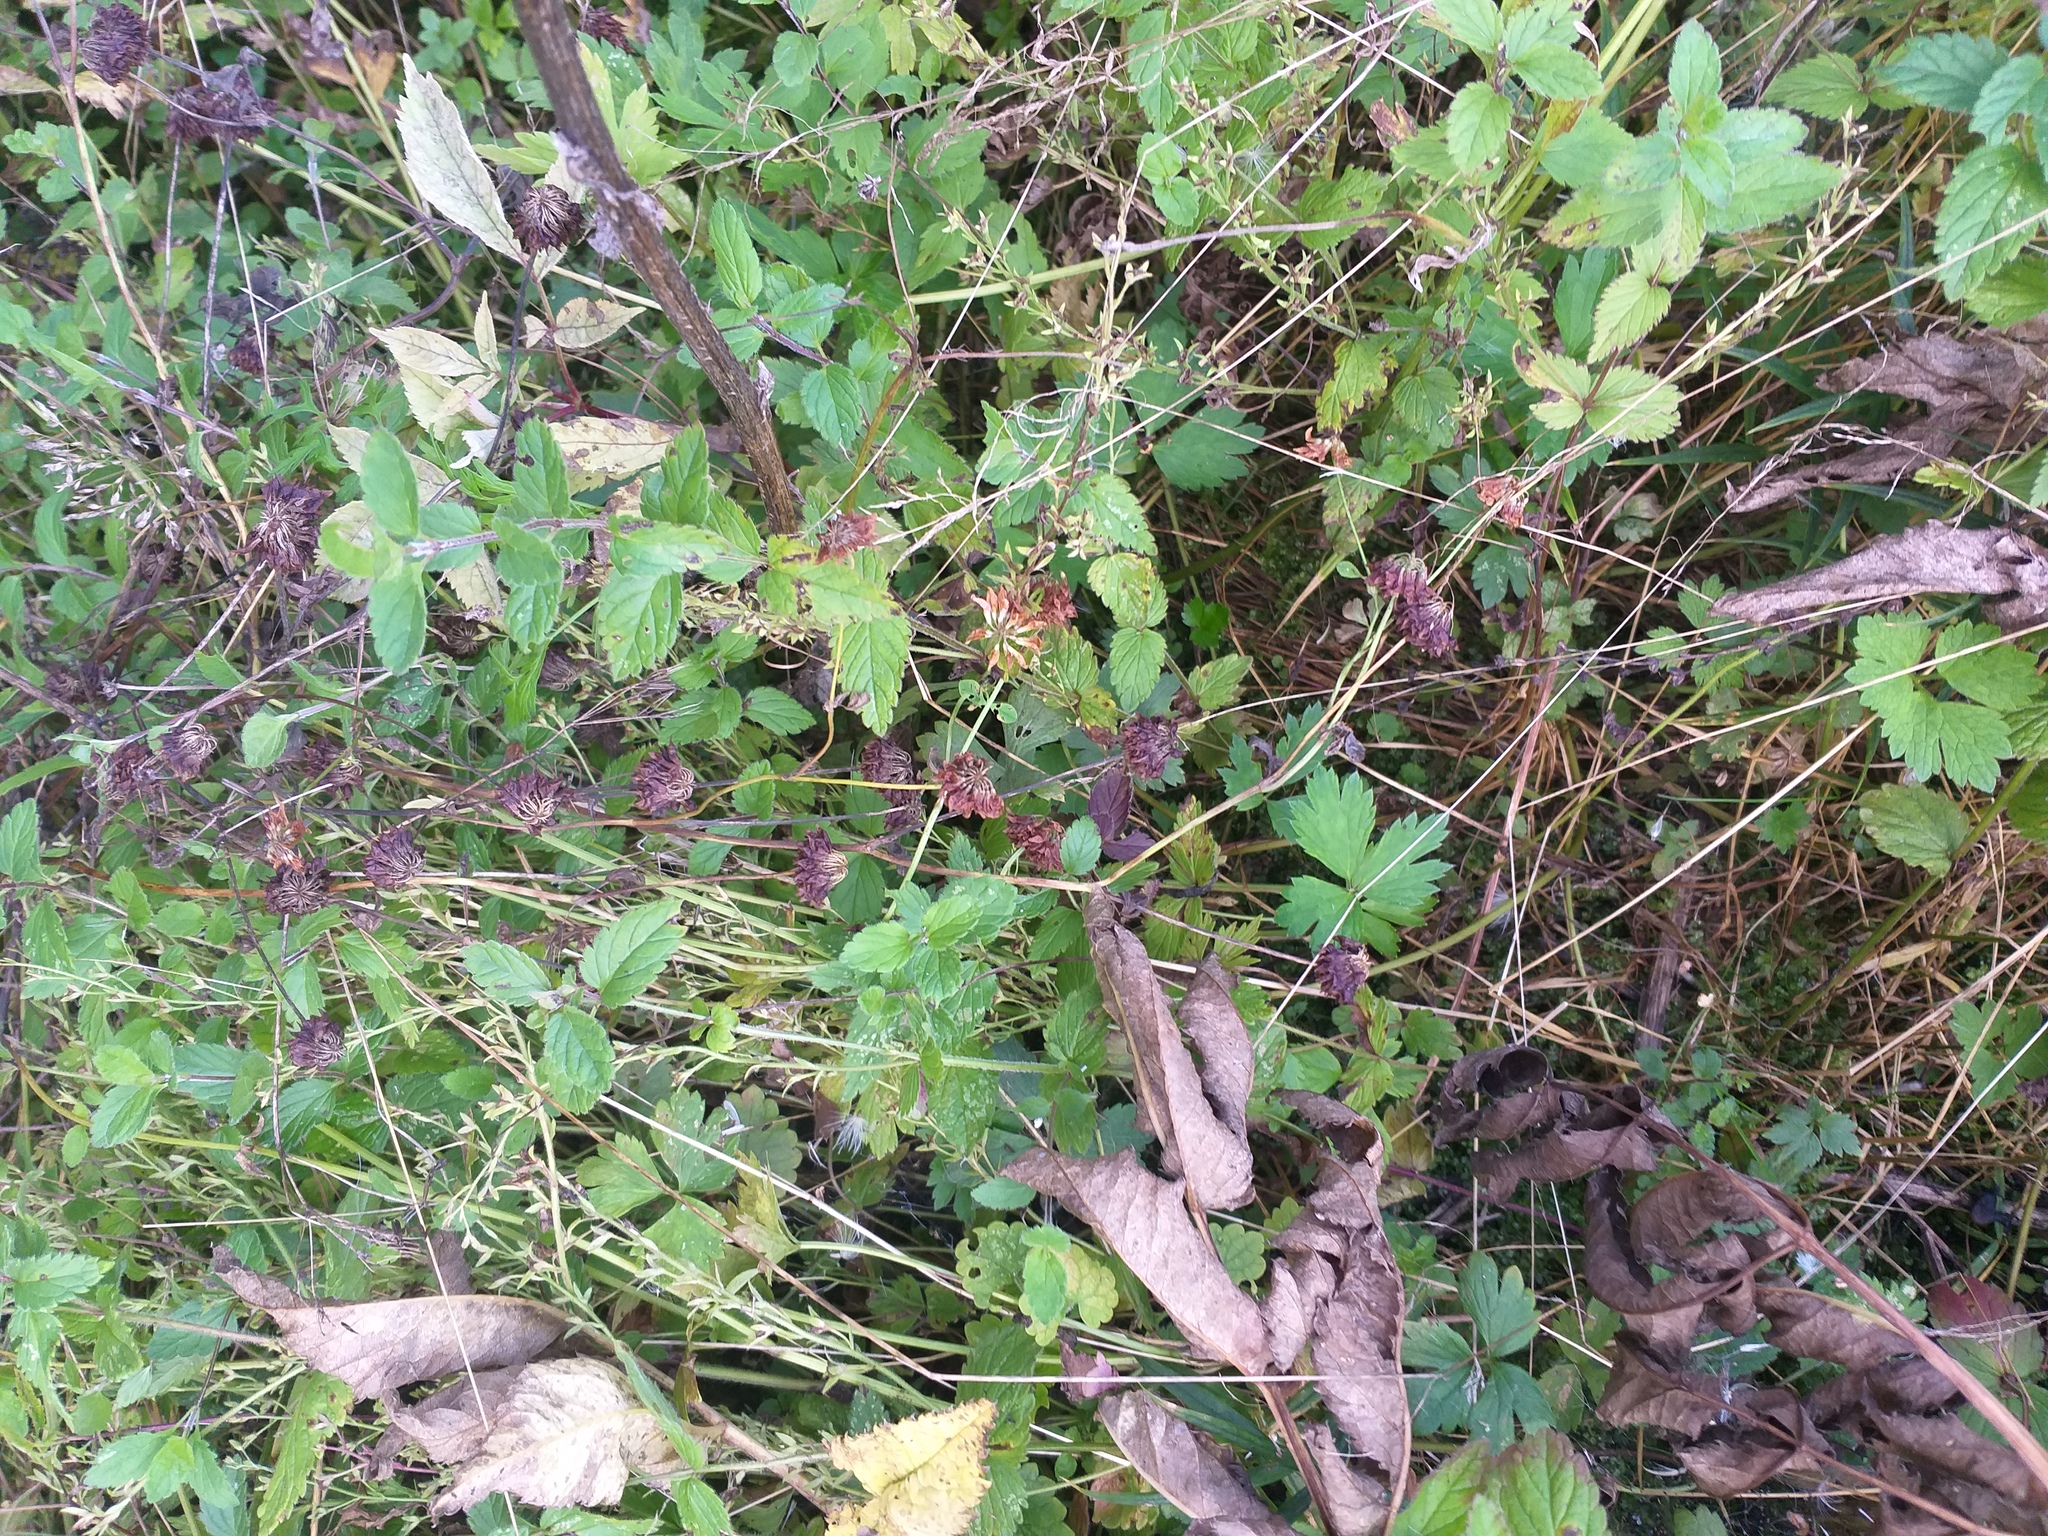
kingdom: Plantae
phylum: Tracheophyta
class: Magnoliopsida
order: Fabales
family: Fabaceae
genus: Trifolium
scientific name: Trifolium hybridum
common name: Alsike clover
